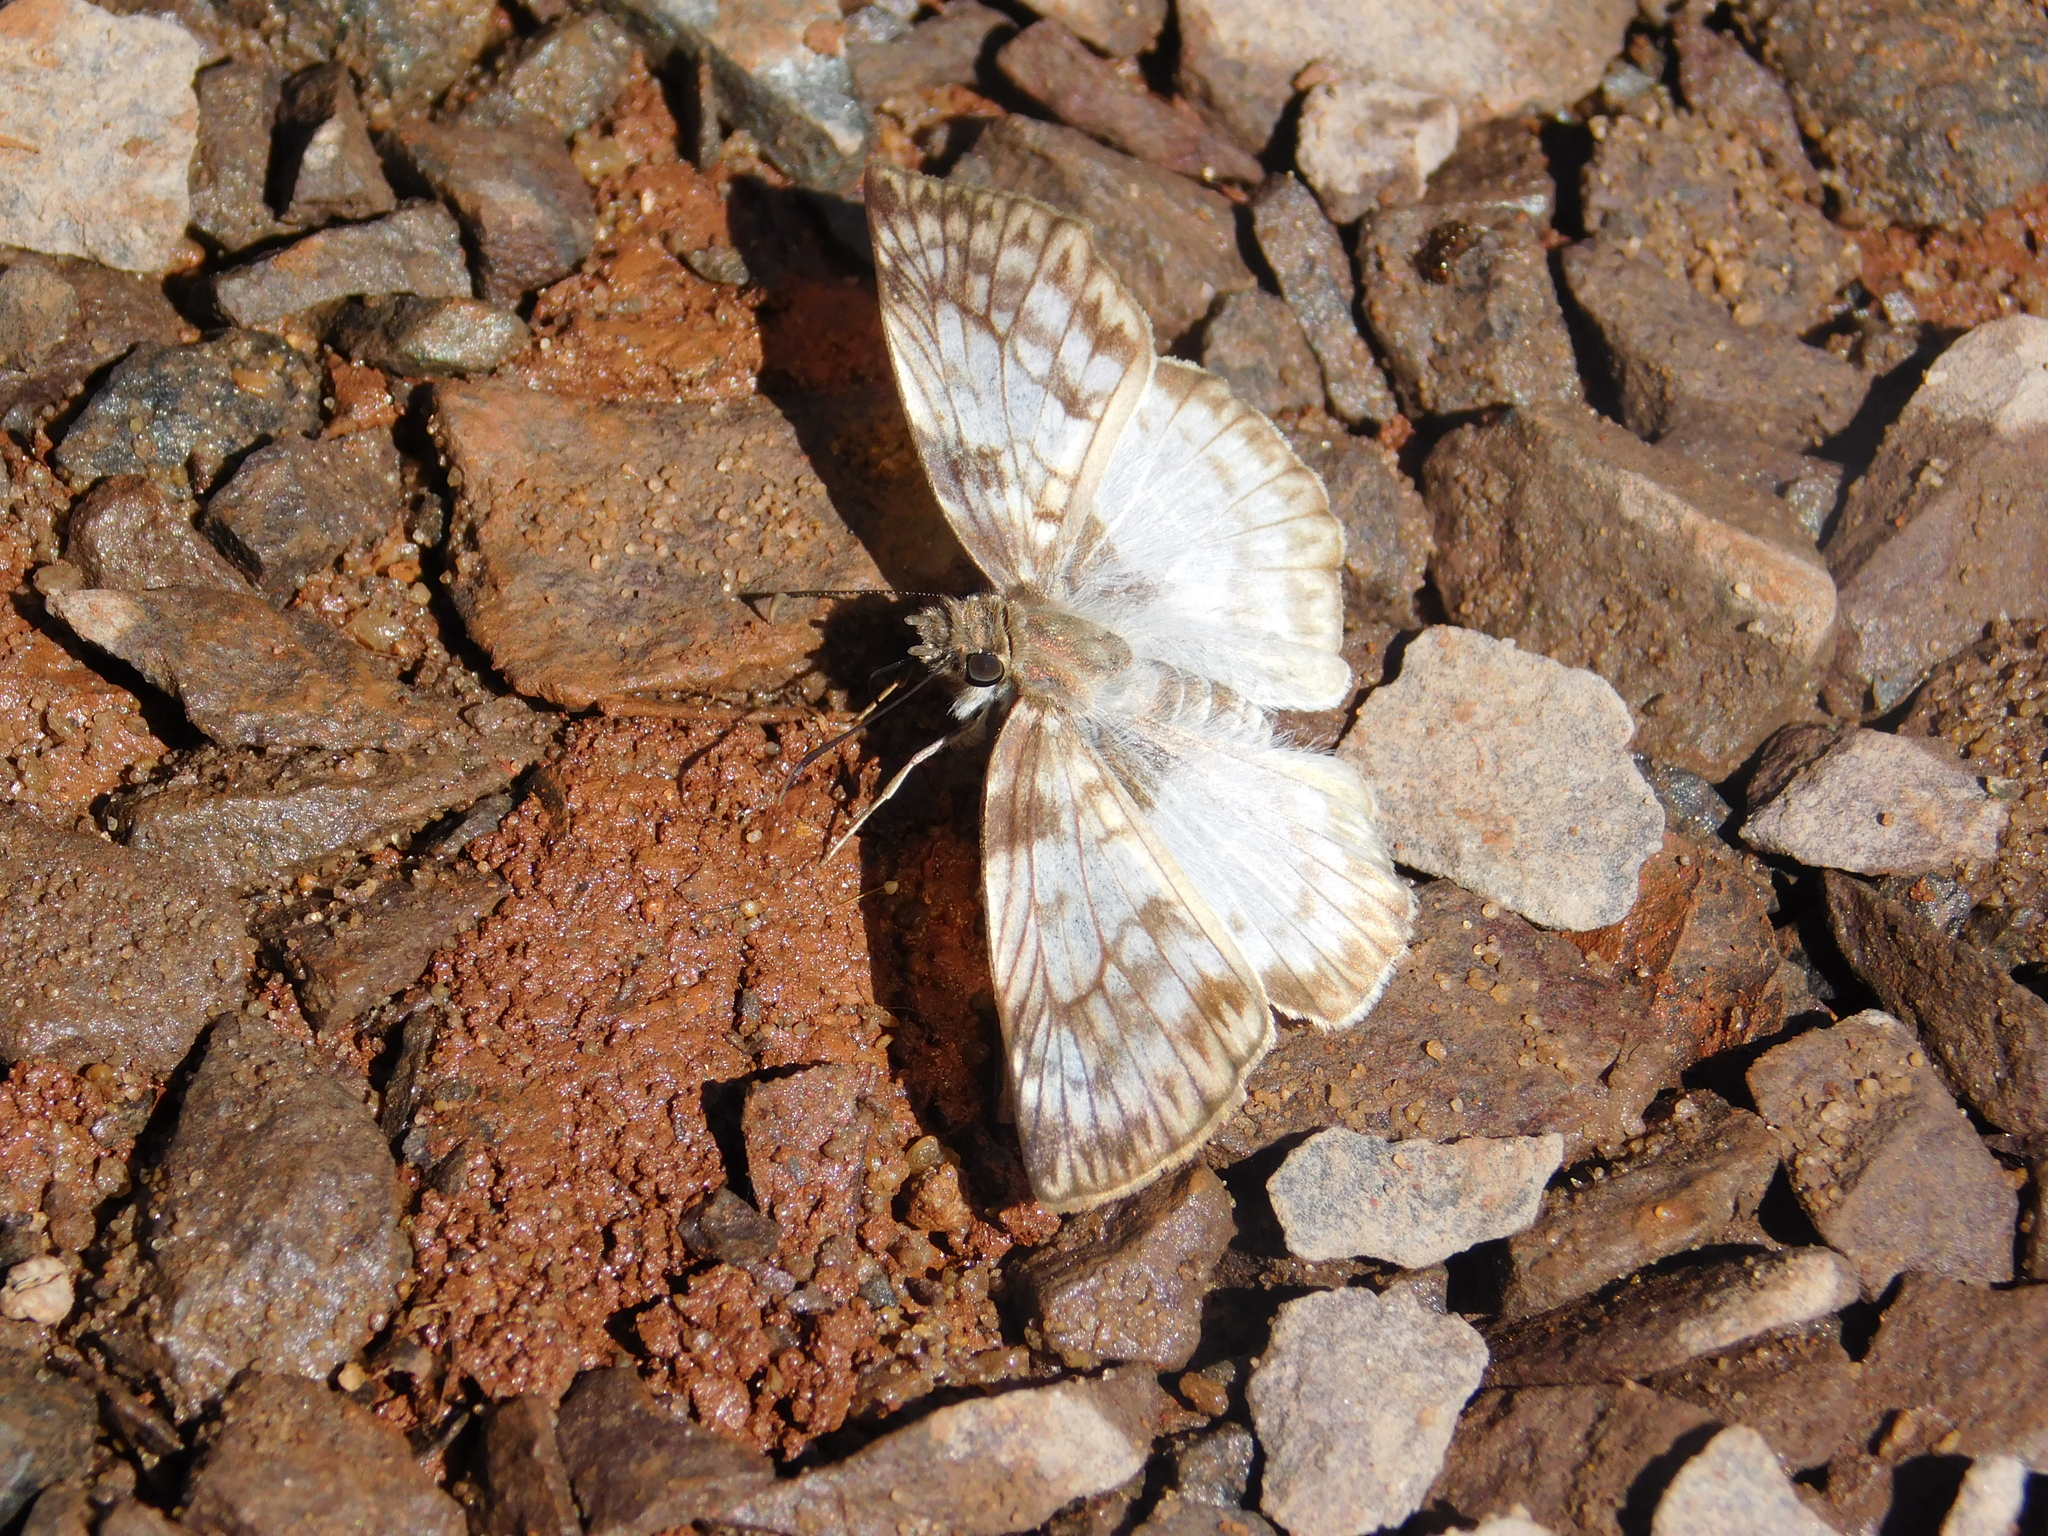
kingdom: Animalia
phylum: Arthropoda
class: Insecta
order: Lepidoptera
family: Hesperiidae
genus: Mylon
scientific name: Mylon maimon
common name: Common mylon
